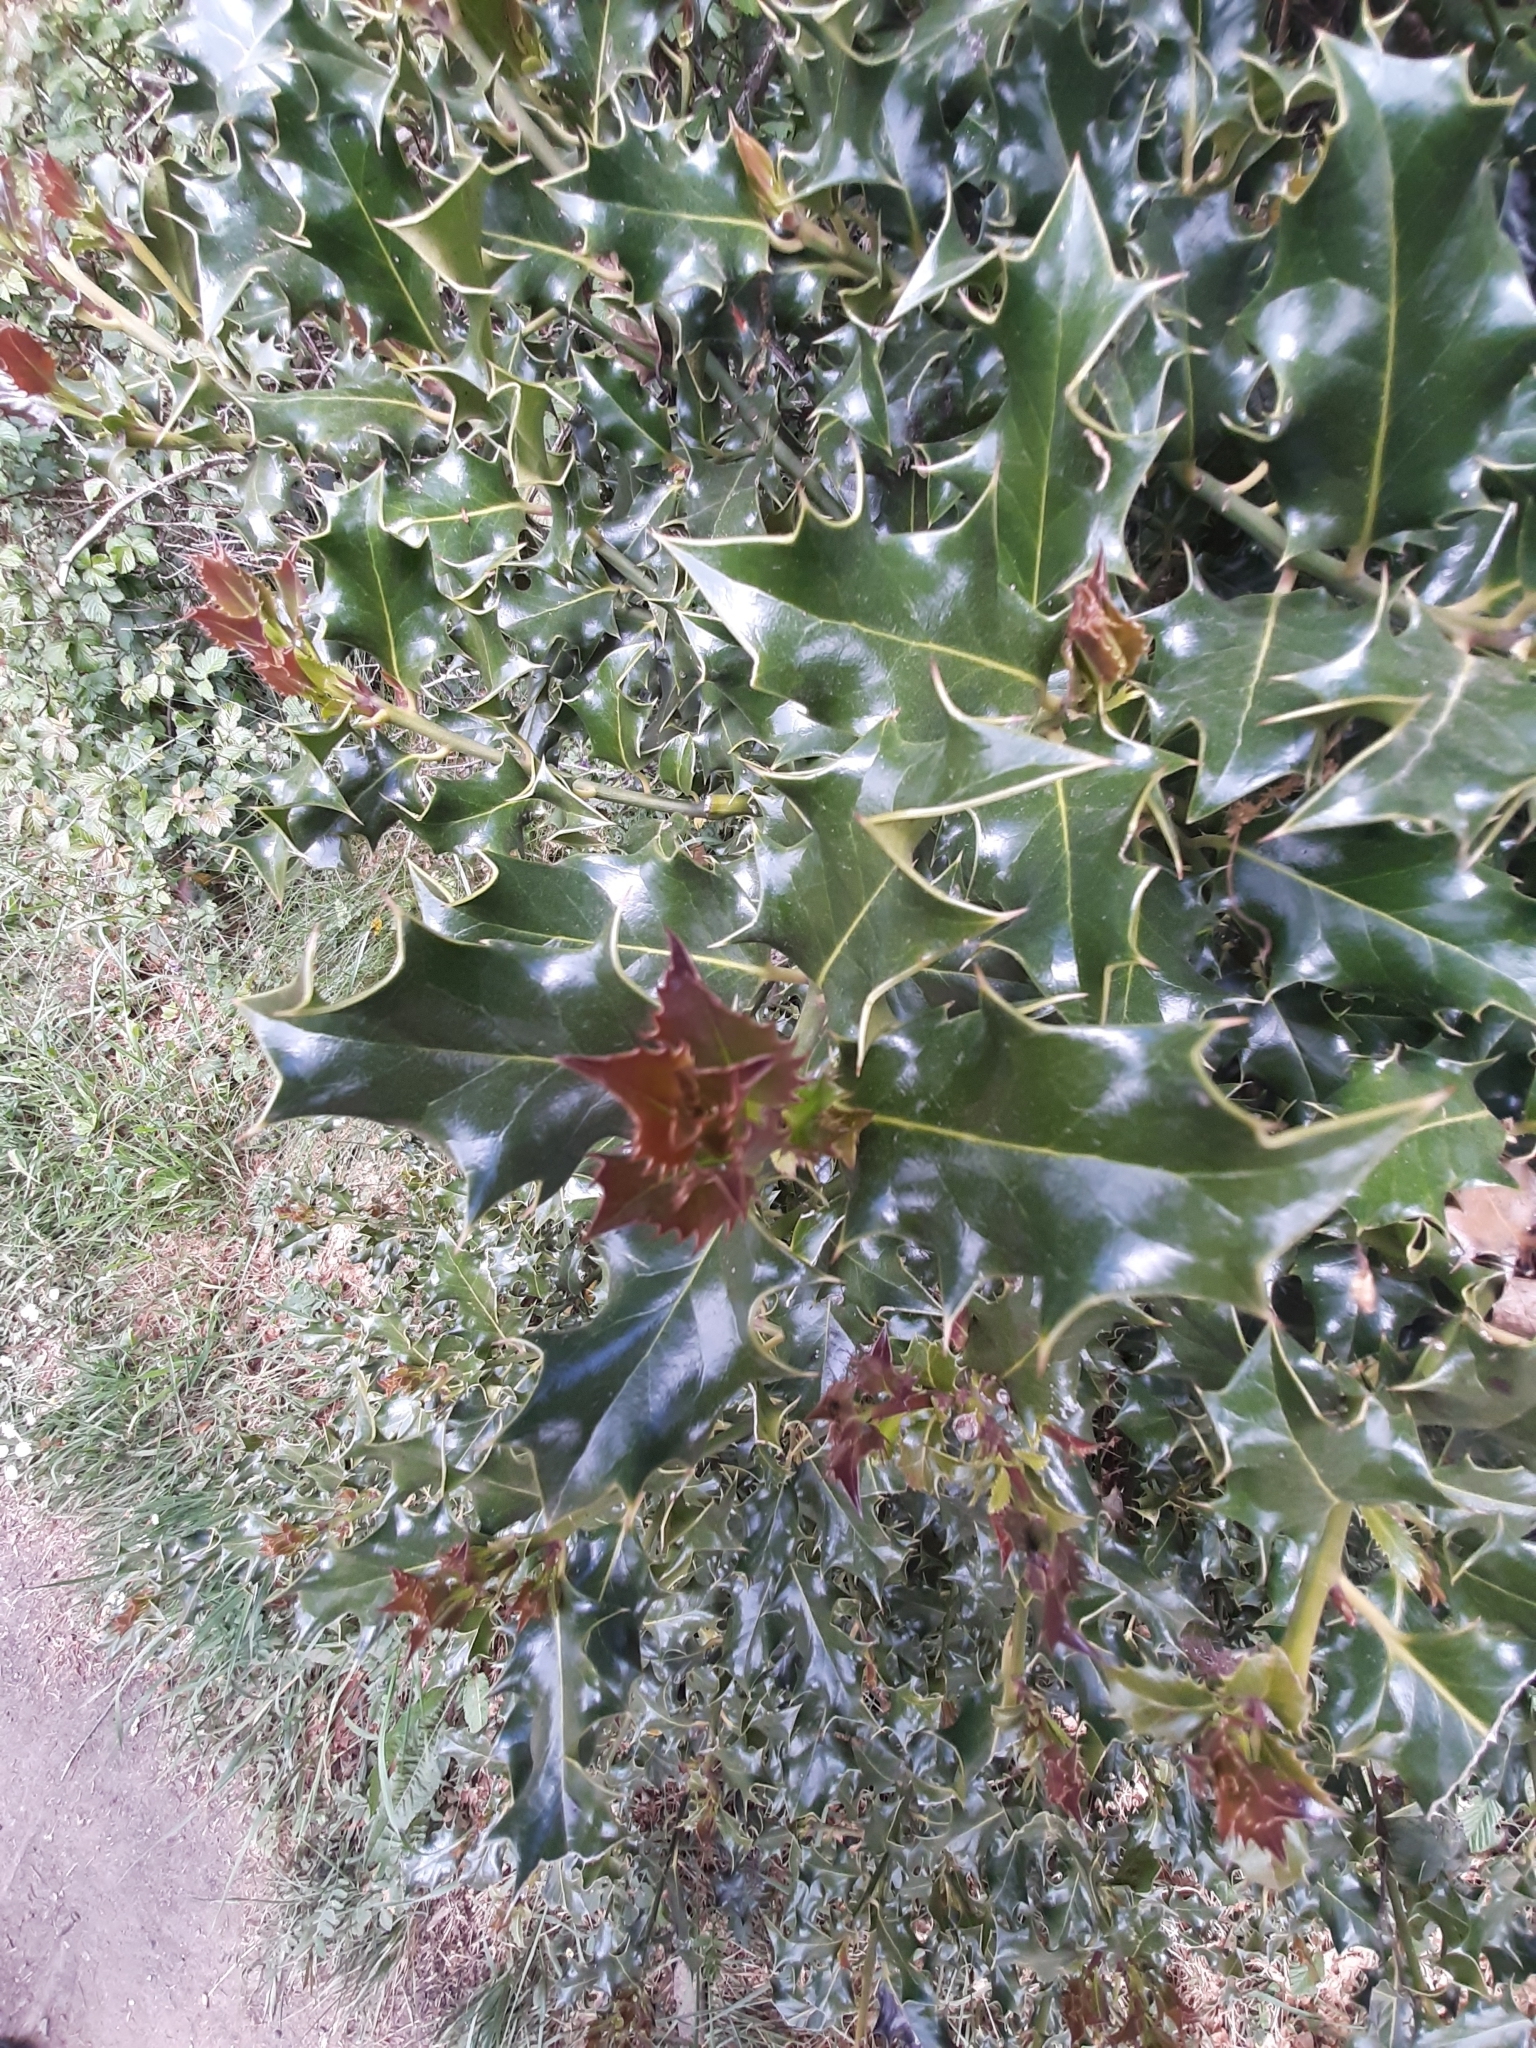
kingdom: Plantae
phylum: Tracheophyta
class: Magnoliopsida
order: Aquifoliales
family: Aquifoliaceae
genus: Ilex
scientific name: Ilex aquifolium
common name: English holly
